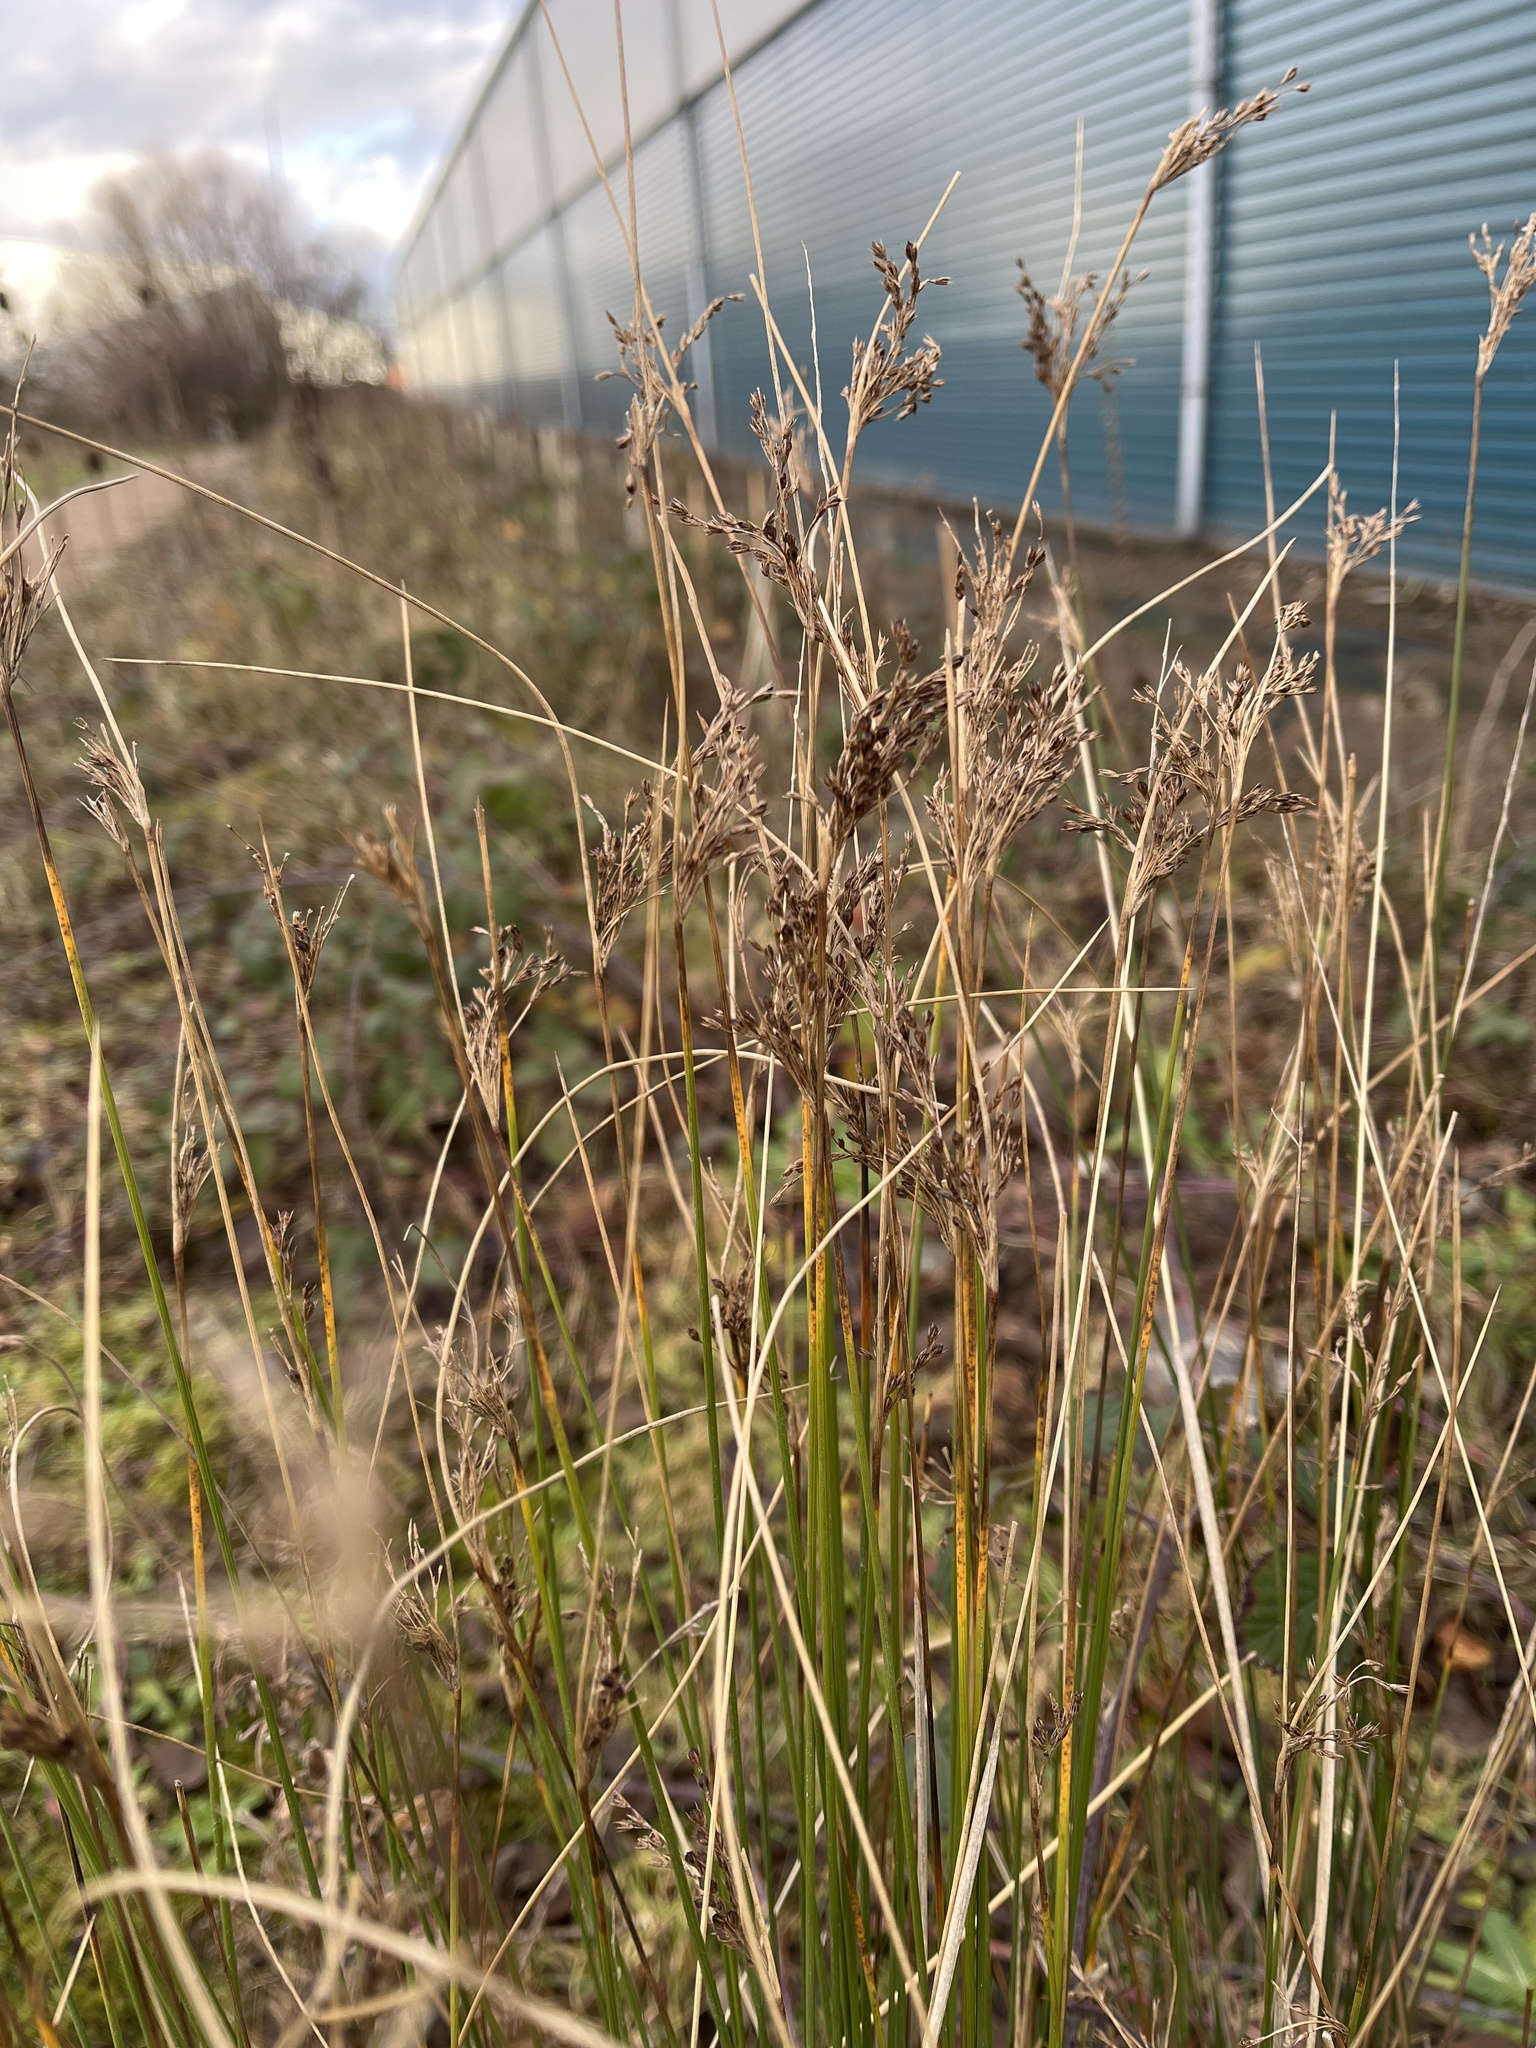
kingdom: Plantae
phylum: Tracheophyta
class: Liliopsida
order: Poales
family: Juncaceae
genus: Juncus
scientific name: Juncus inflexus
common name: Hard rush
